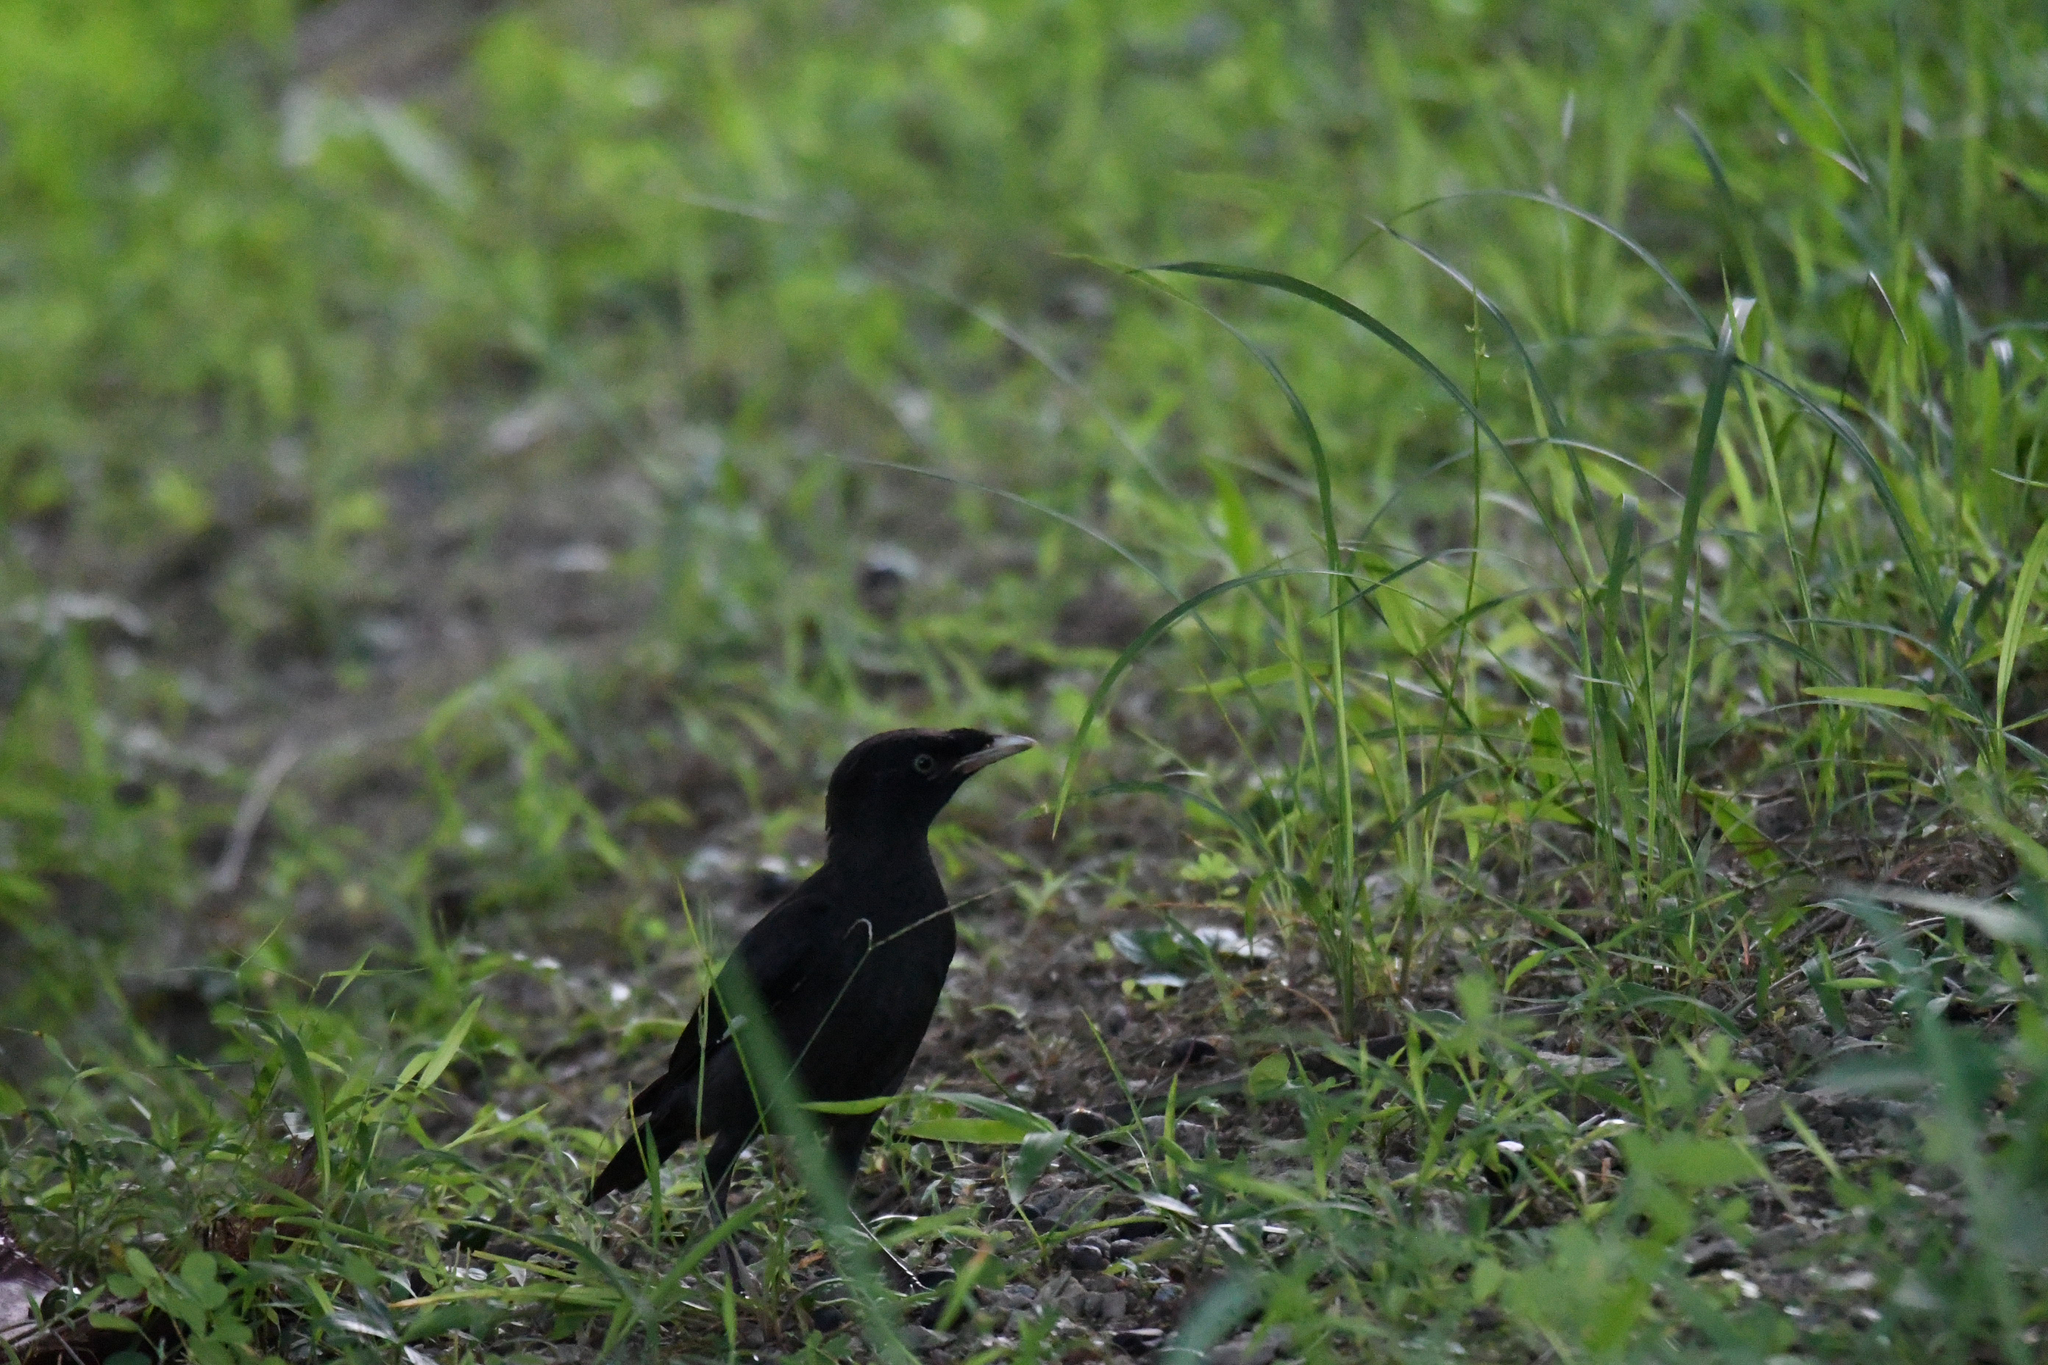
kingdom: Animalia
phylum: Chordata
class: Aves
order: Passeriformes
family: Sturnidae
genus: Acridotheres
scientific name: Acridotheres cristatellus
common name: Crested myna
